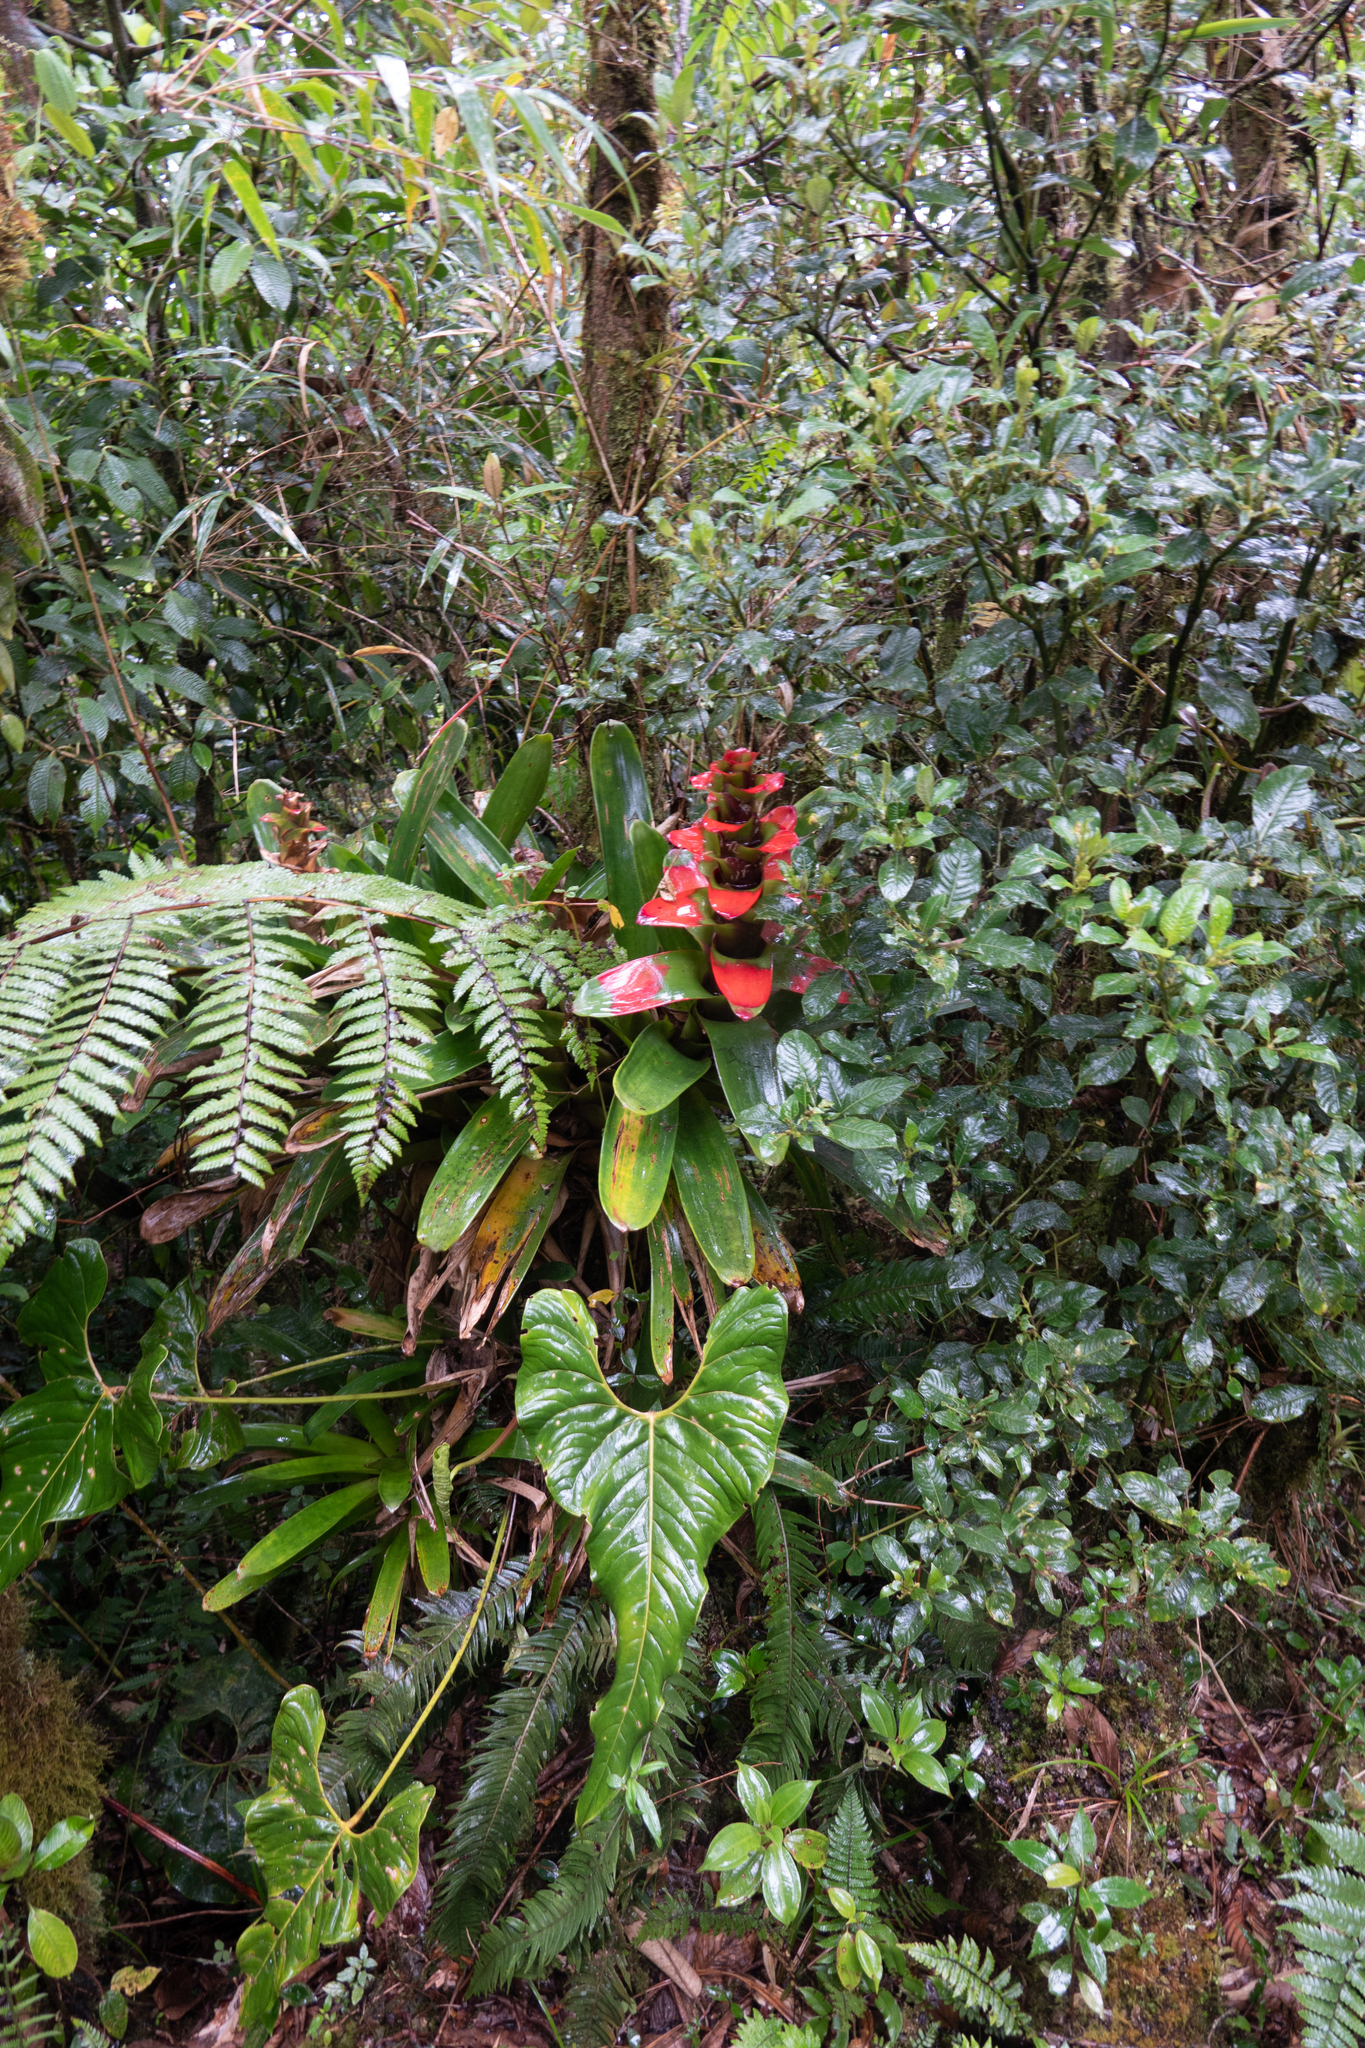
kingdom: Plantae
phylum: Tracheophyta
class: Liliopsida
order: Poales
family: Bromeliaceae
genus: Guzmania
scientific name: Guzmania gloriosa
